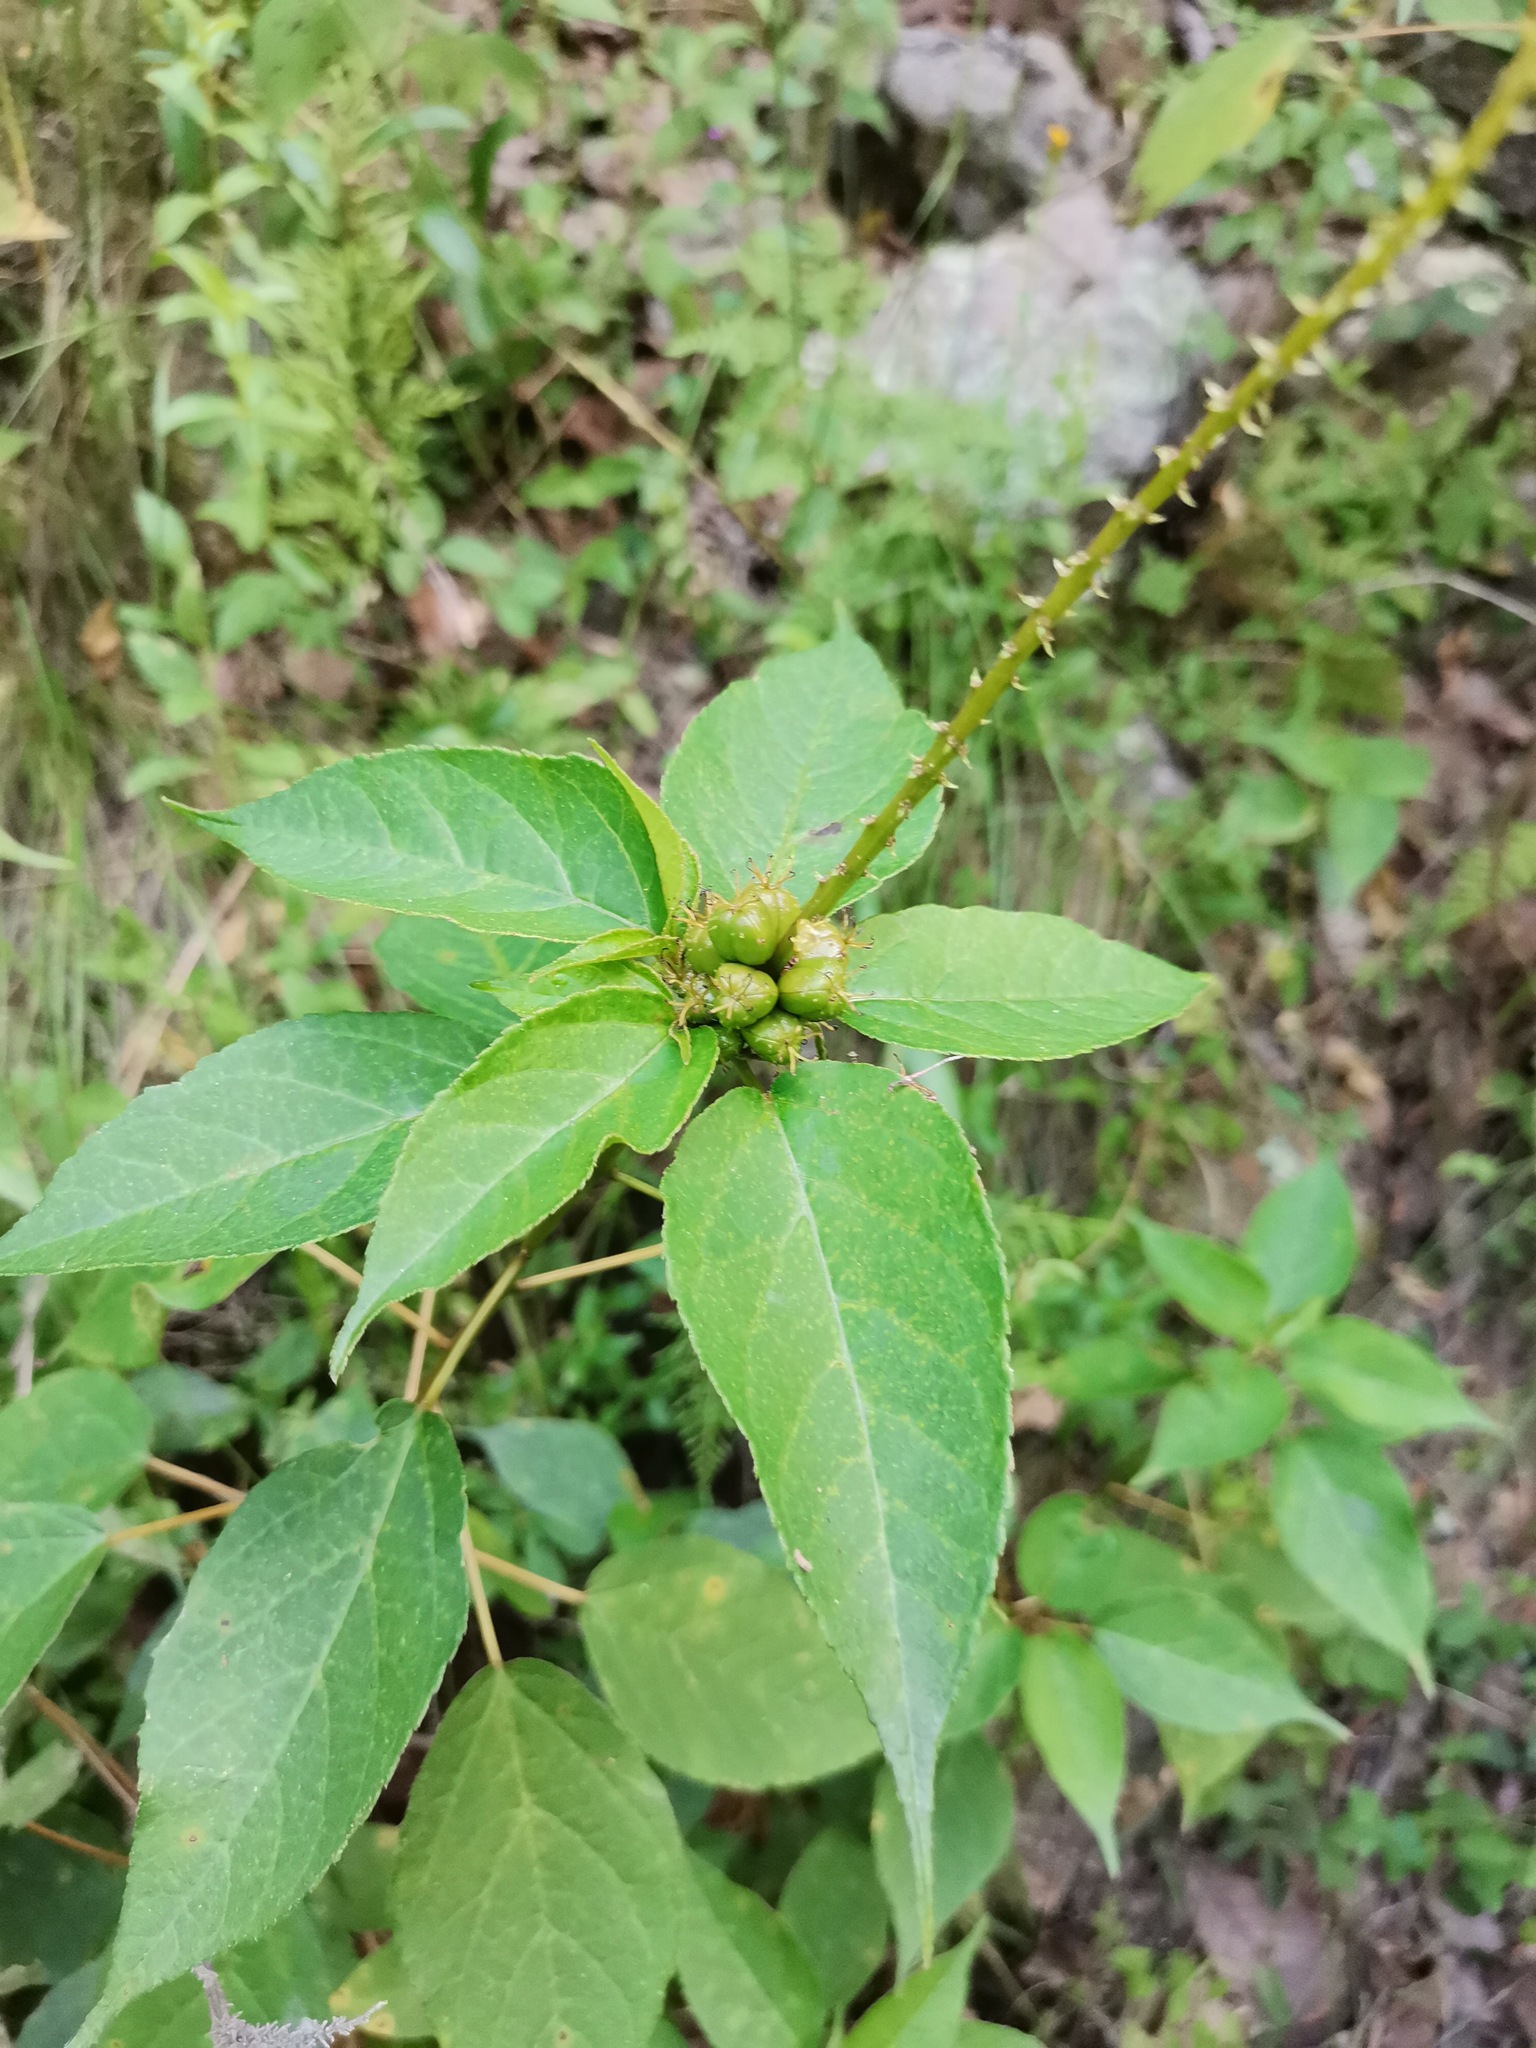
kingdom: Plantae
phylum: Tracheophyta
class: Magnoliopsida
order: Malpighiales
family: Euphorbiaceae
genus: Croton
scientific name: Croton adspersus
